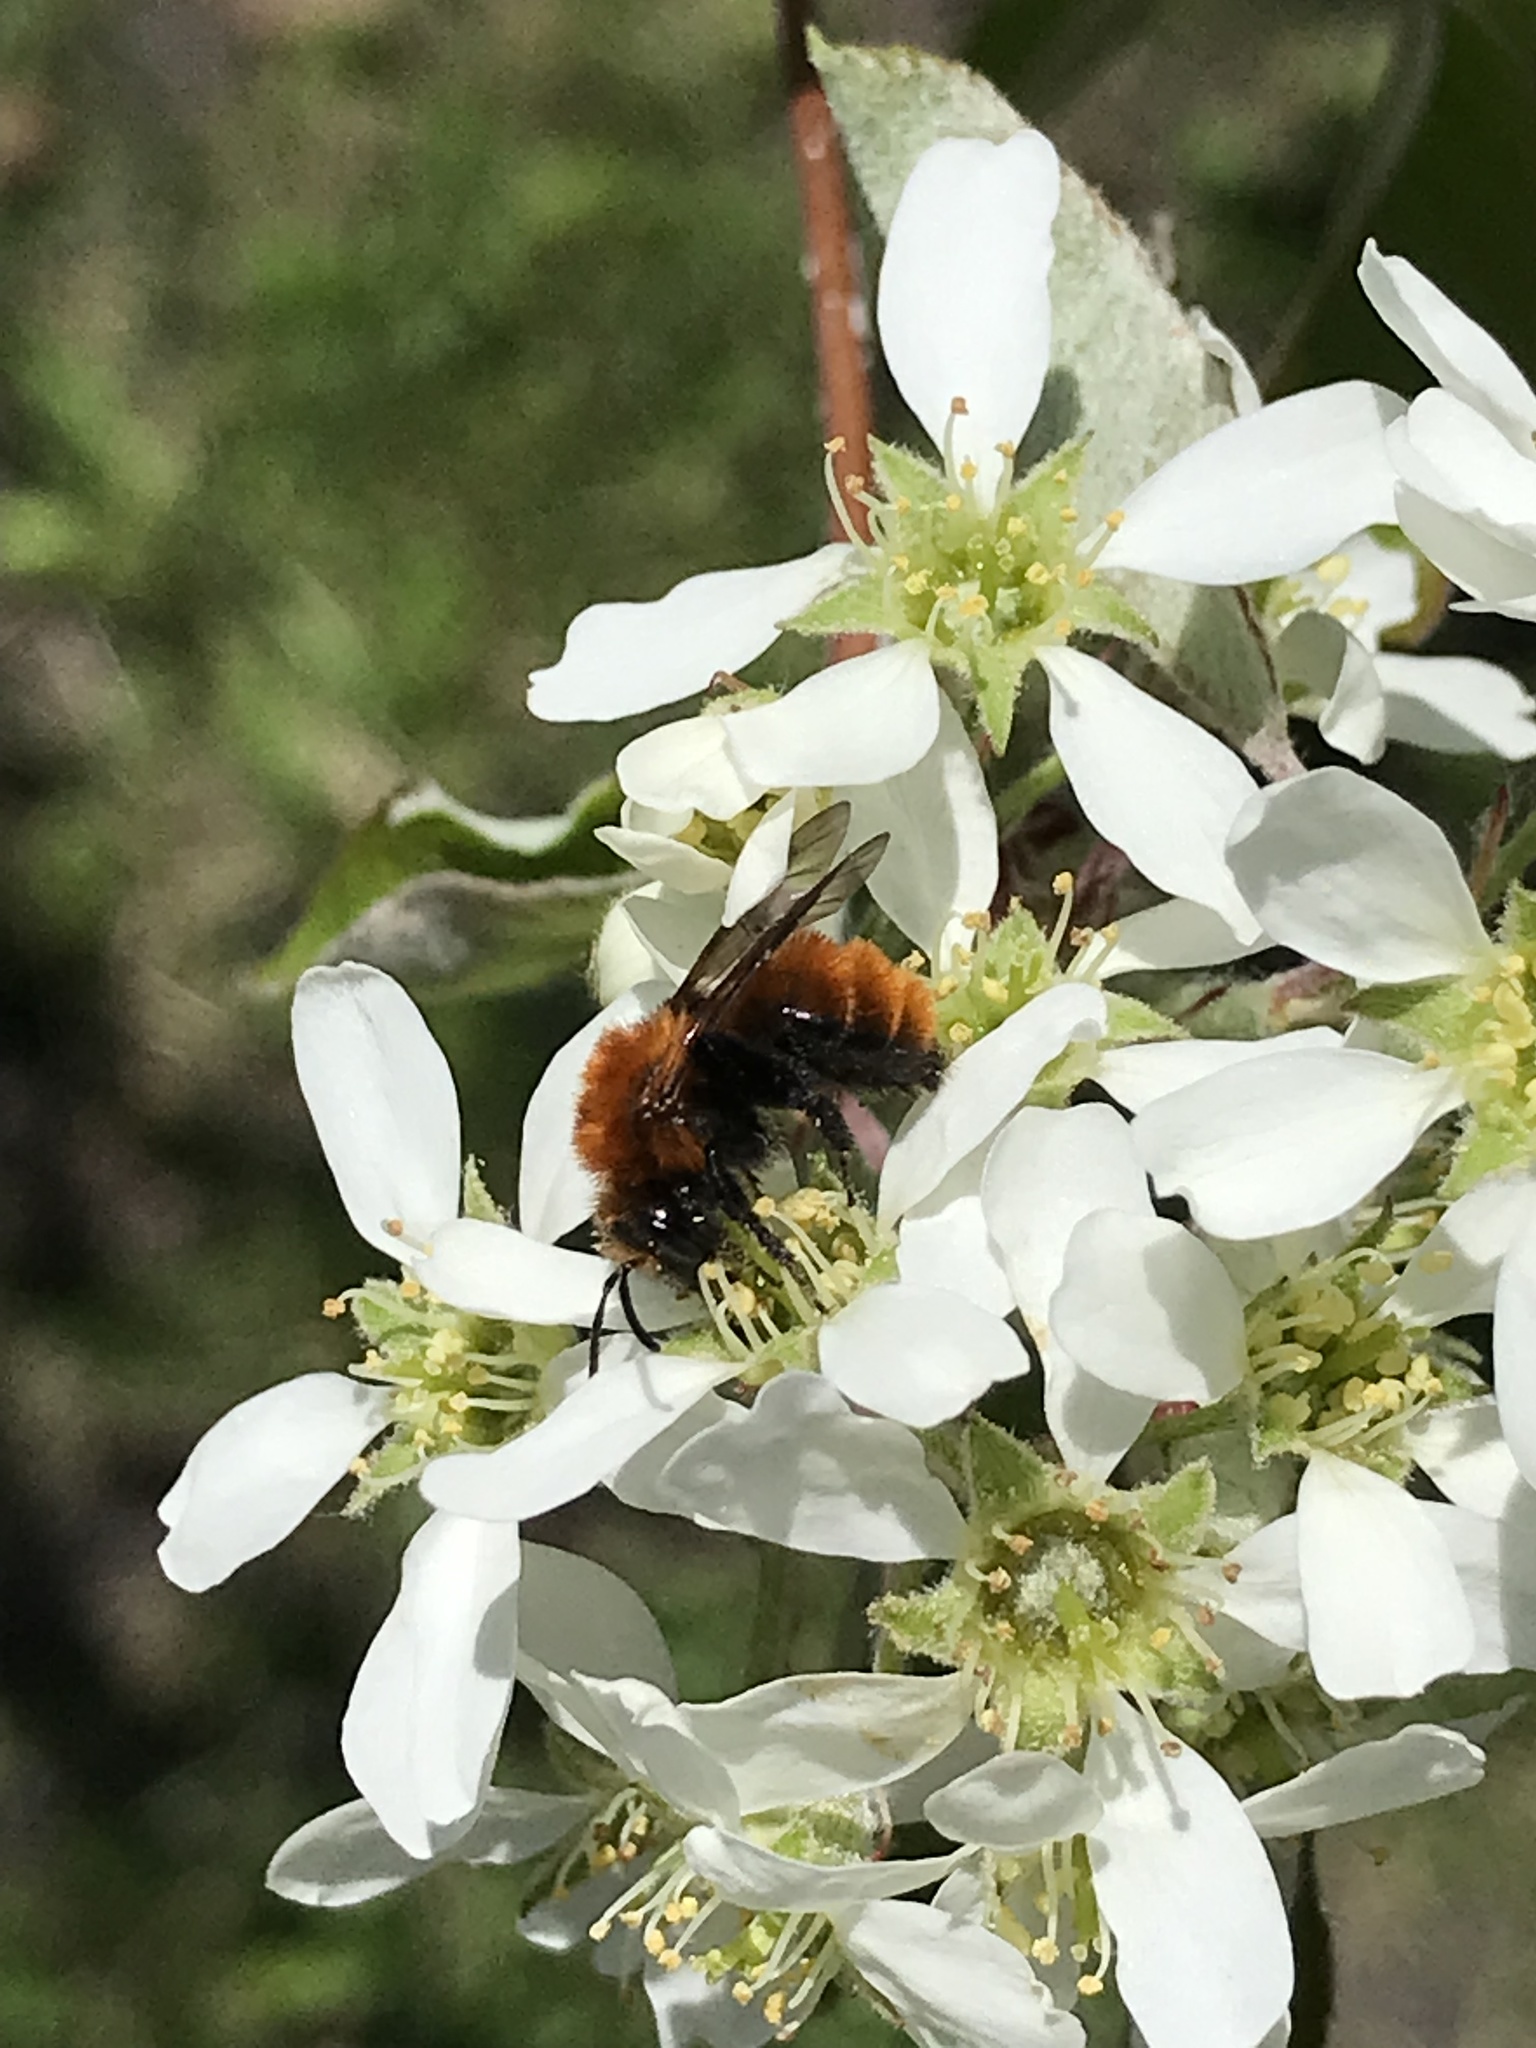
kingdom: Animalia
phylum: Arthropoda
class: Insecta
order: Hymenoptera
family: Andrenidae
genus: Andrena
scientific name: Andrena milwaukeensis
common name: Milwaukee mining bee
